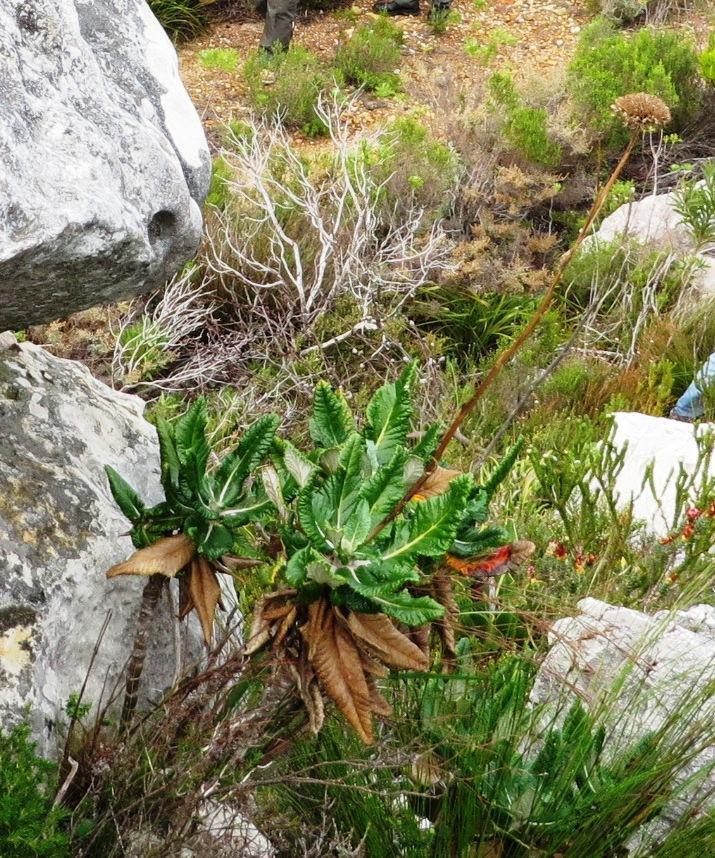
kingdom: Plantae
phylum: Tracheophyta
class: Magnoliopsida
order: Apiales
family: Apiaceae
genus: Hermas
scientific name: Hermas villosa
